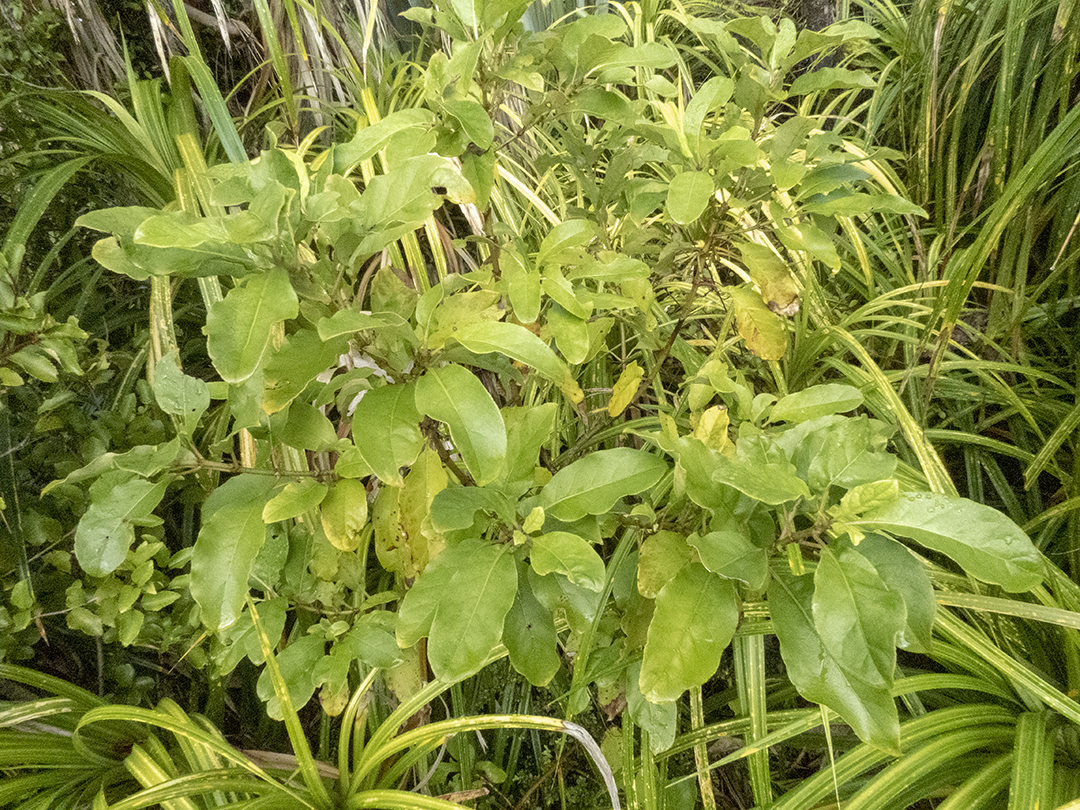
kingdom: Plantae
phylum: Tracheophyta
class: Magnoliopsida
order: Gentianales
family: Rubiaceae
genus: Coprosma
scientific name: Coprosma autumnalis
